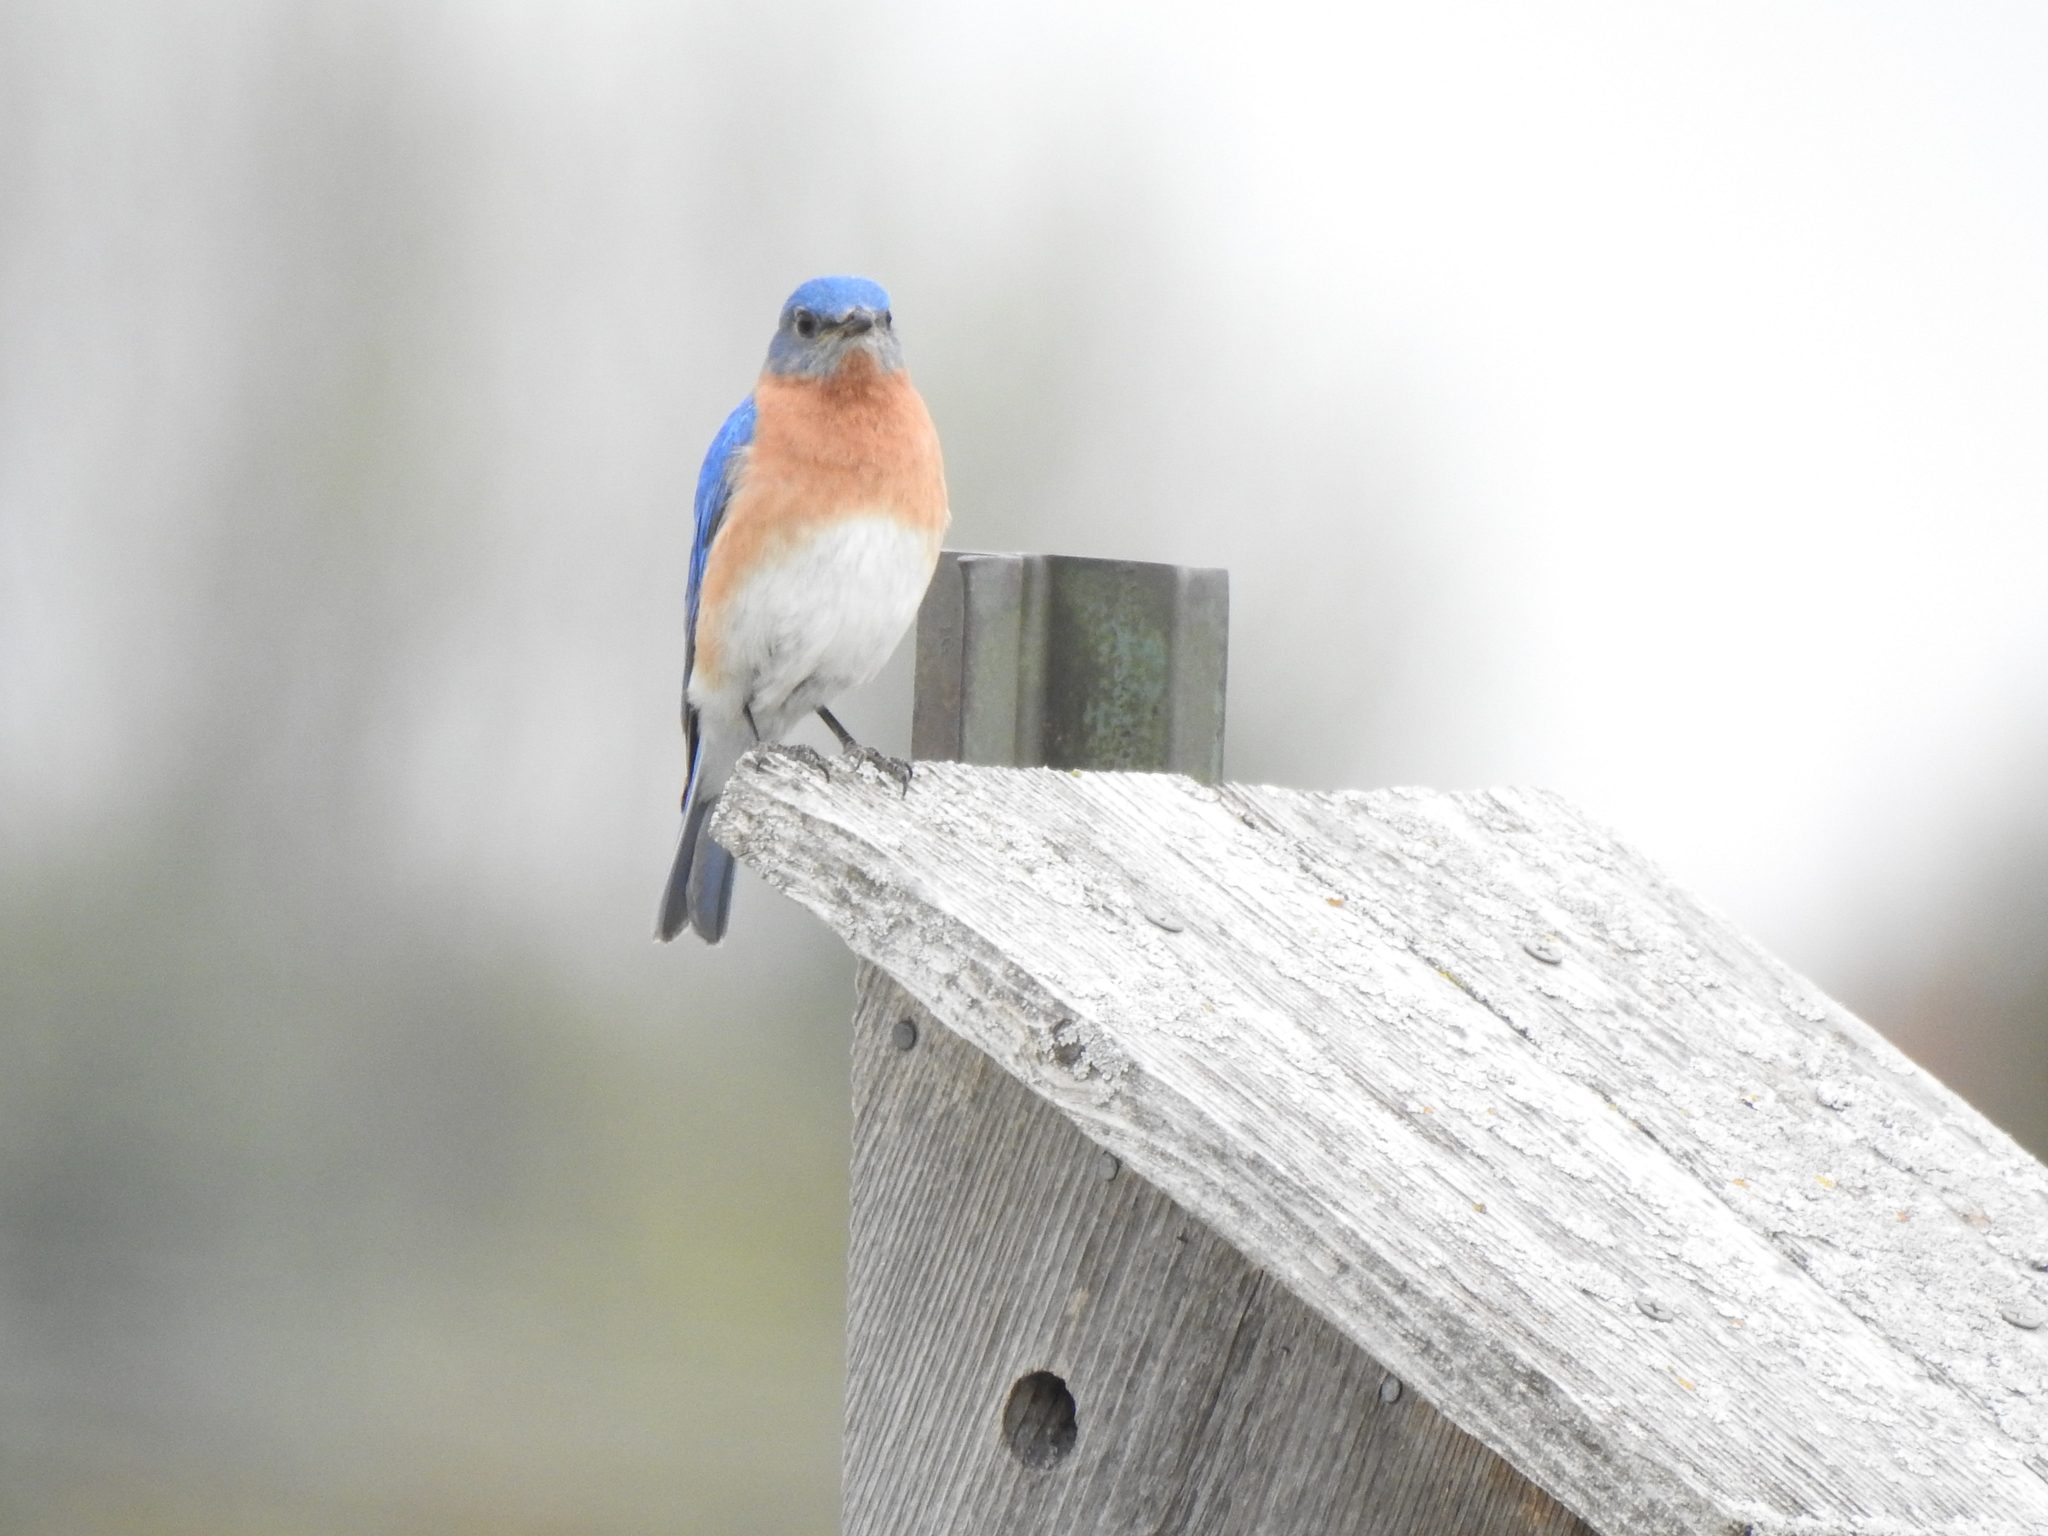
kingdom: Animalia
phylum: Chordata
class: Aves
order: Passeriformes
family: Turdidae
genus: Sialia
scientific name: Sialia sialis
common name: Eastern bluebird
